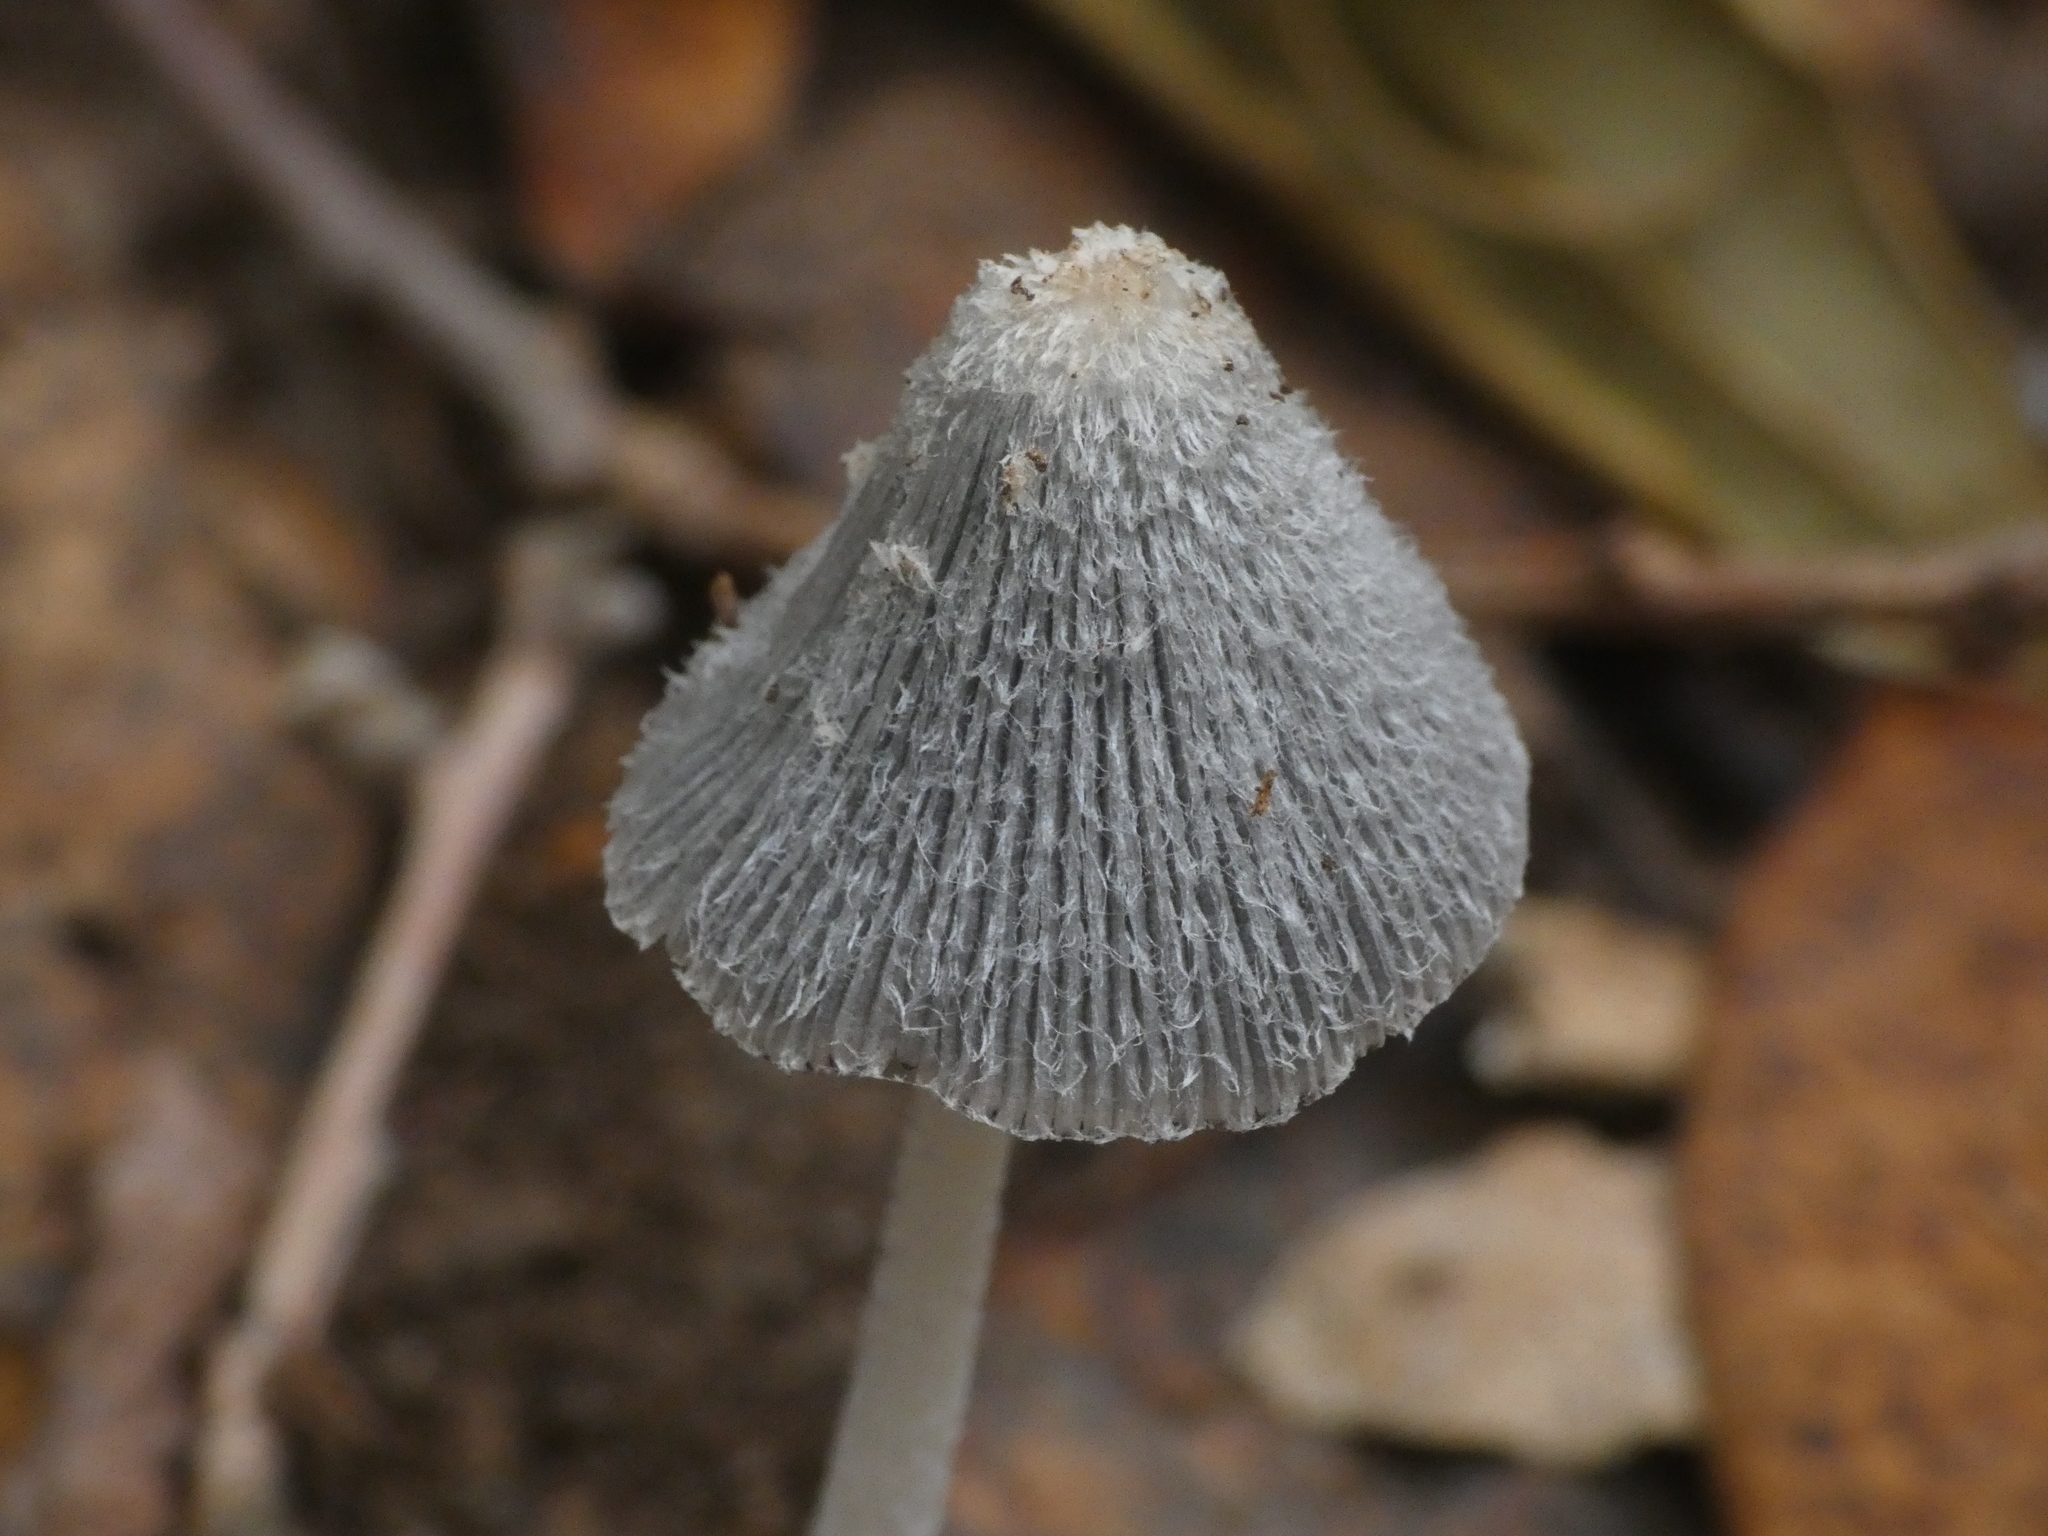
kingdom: Fungi
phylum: Basidiomycota
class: Agaricomycetes
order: Agaricales
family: Psathyrellaceae
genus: Coprinopsis
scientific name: Coprinopsis lagopus
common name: Hare'sfoot inkcap
